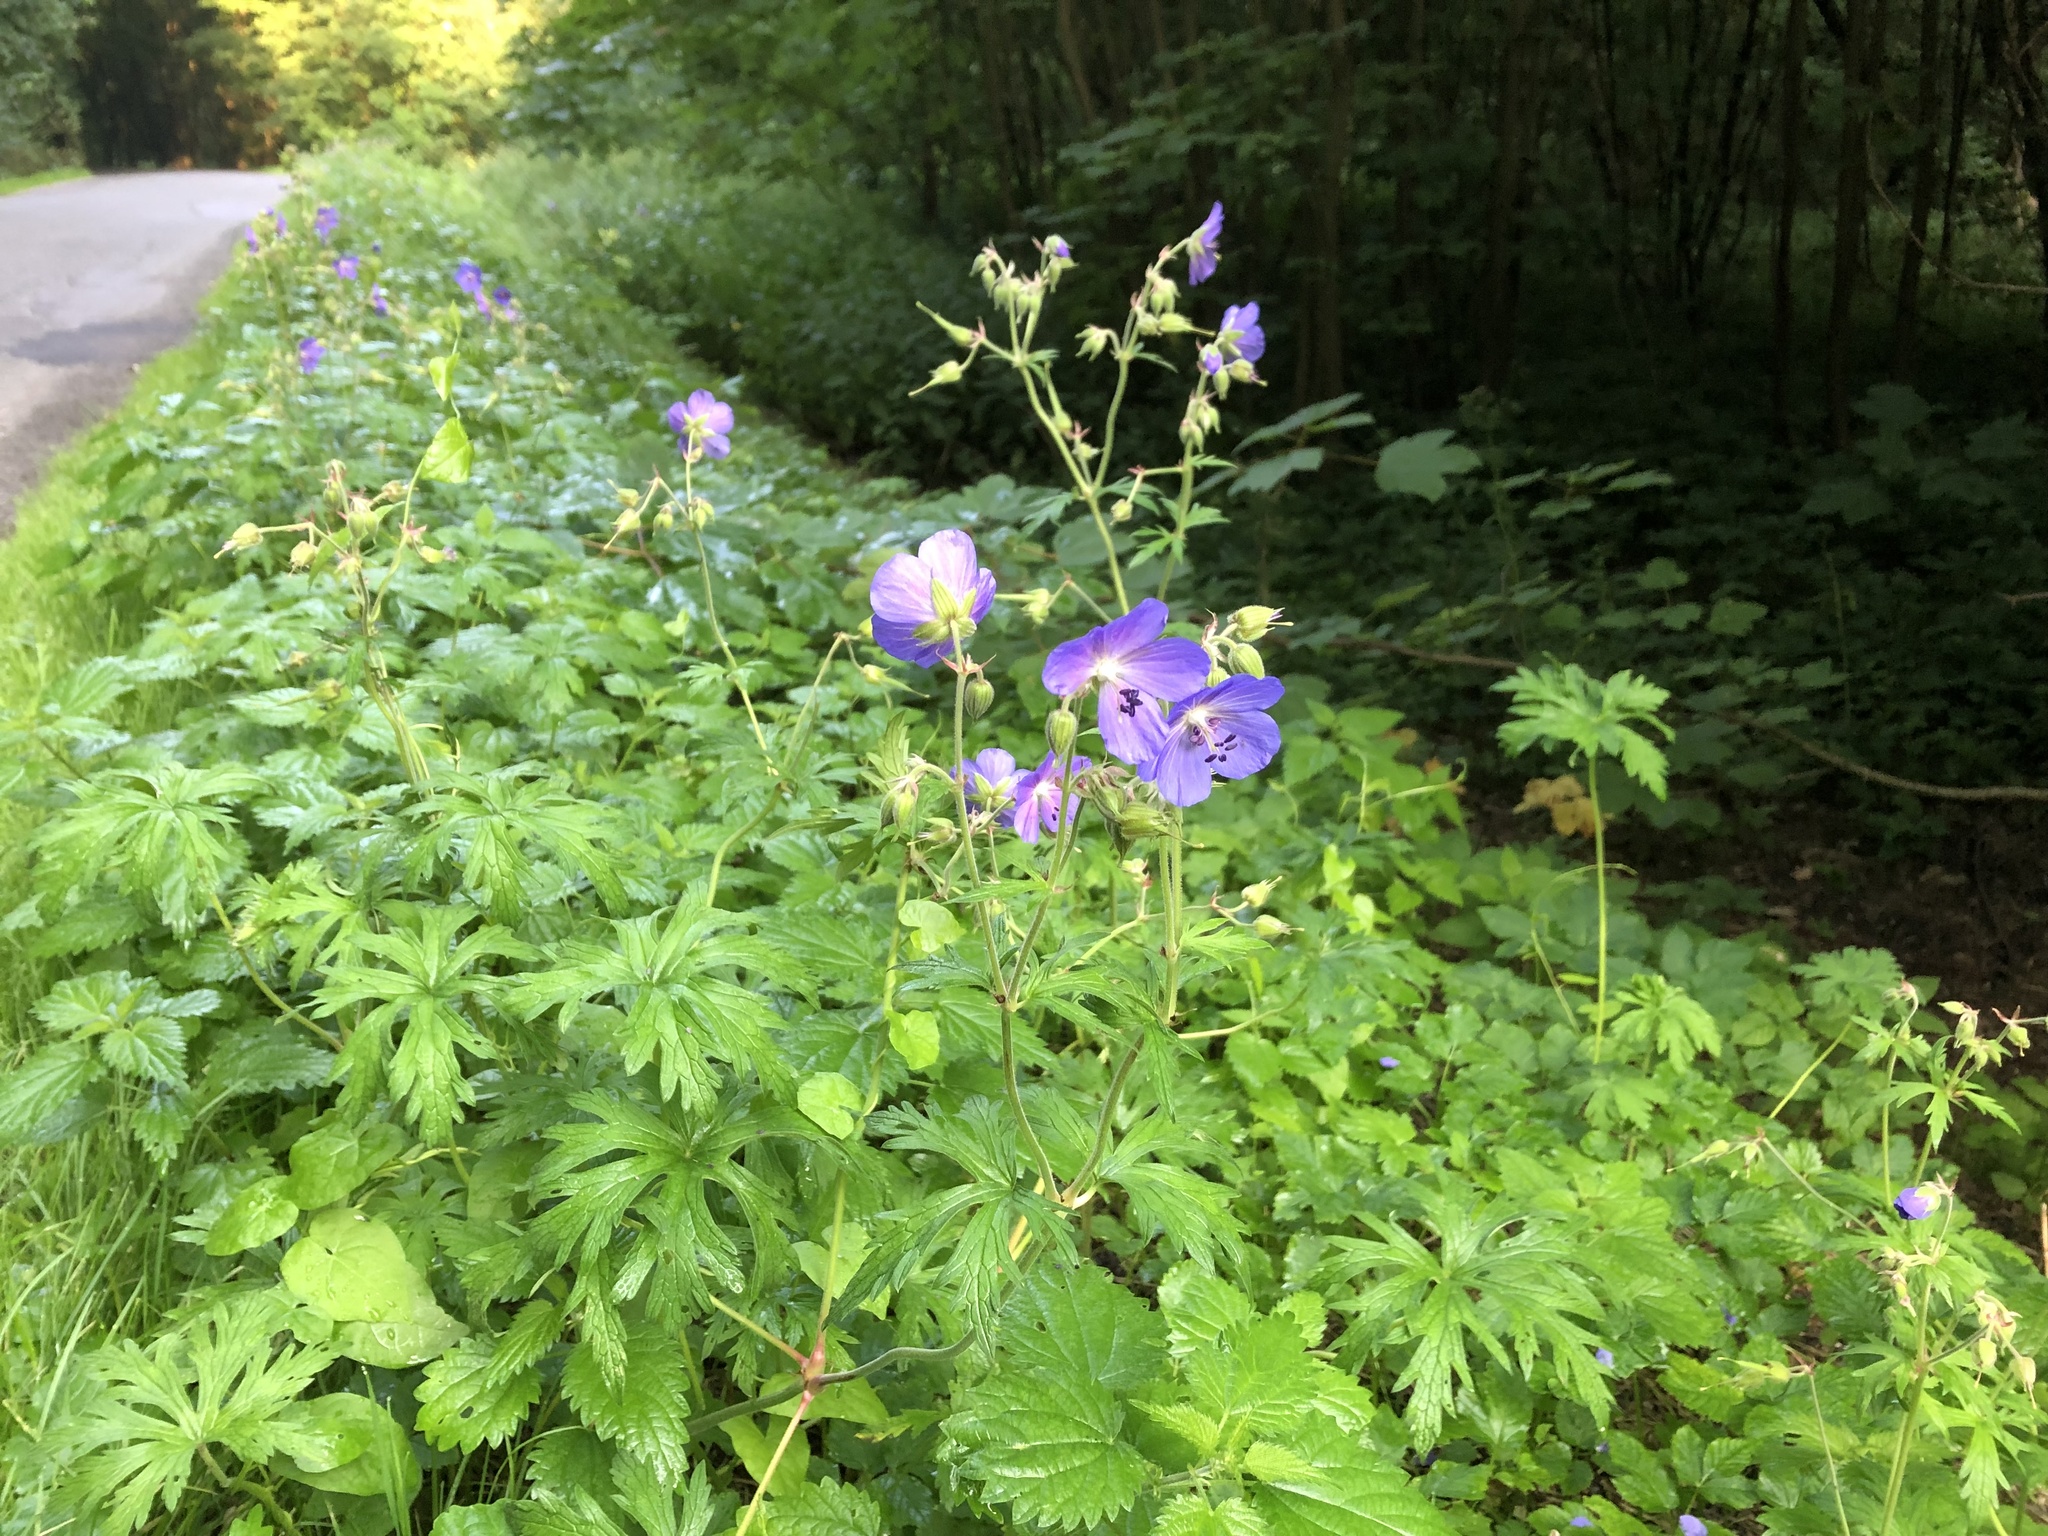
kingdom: Plantae
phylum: Tracheophyta
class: Magnoliopsida
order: Geraniales
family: Geraniaceae
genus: Geranium
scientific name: Geranium pratense
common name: Meadow crane's-bill
